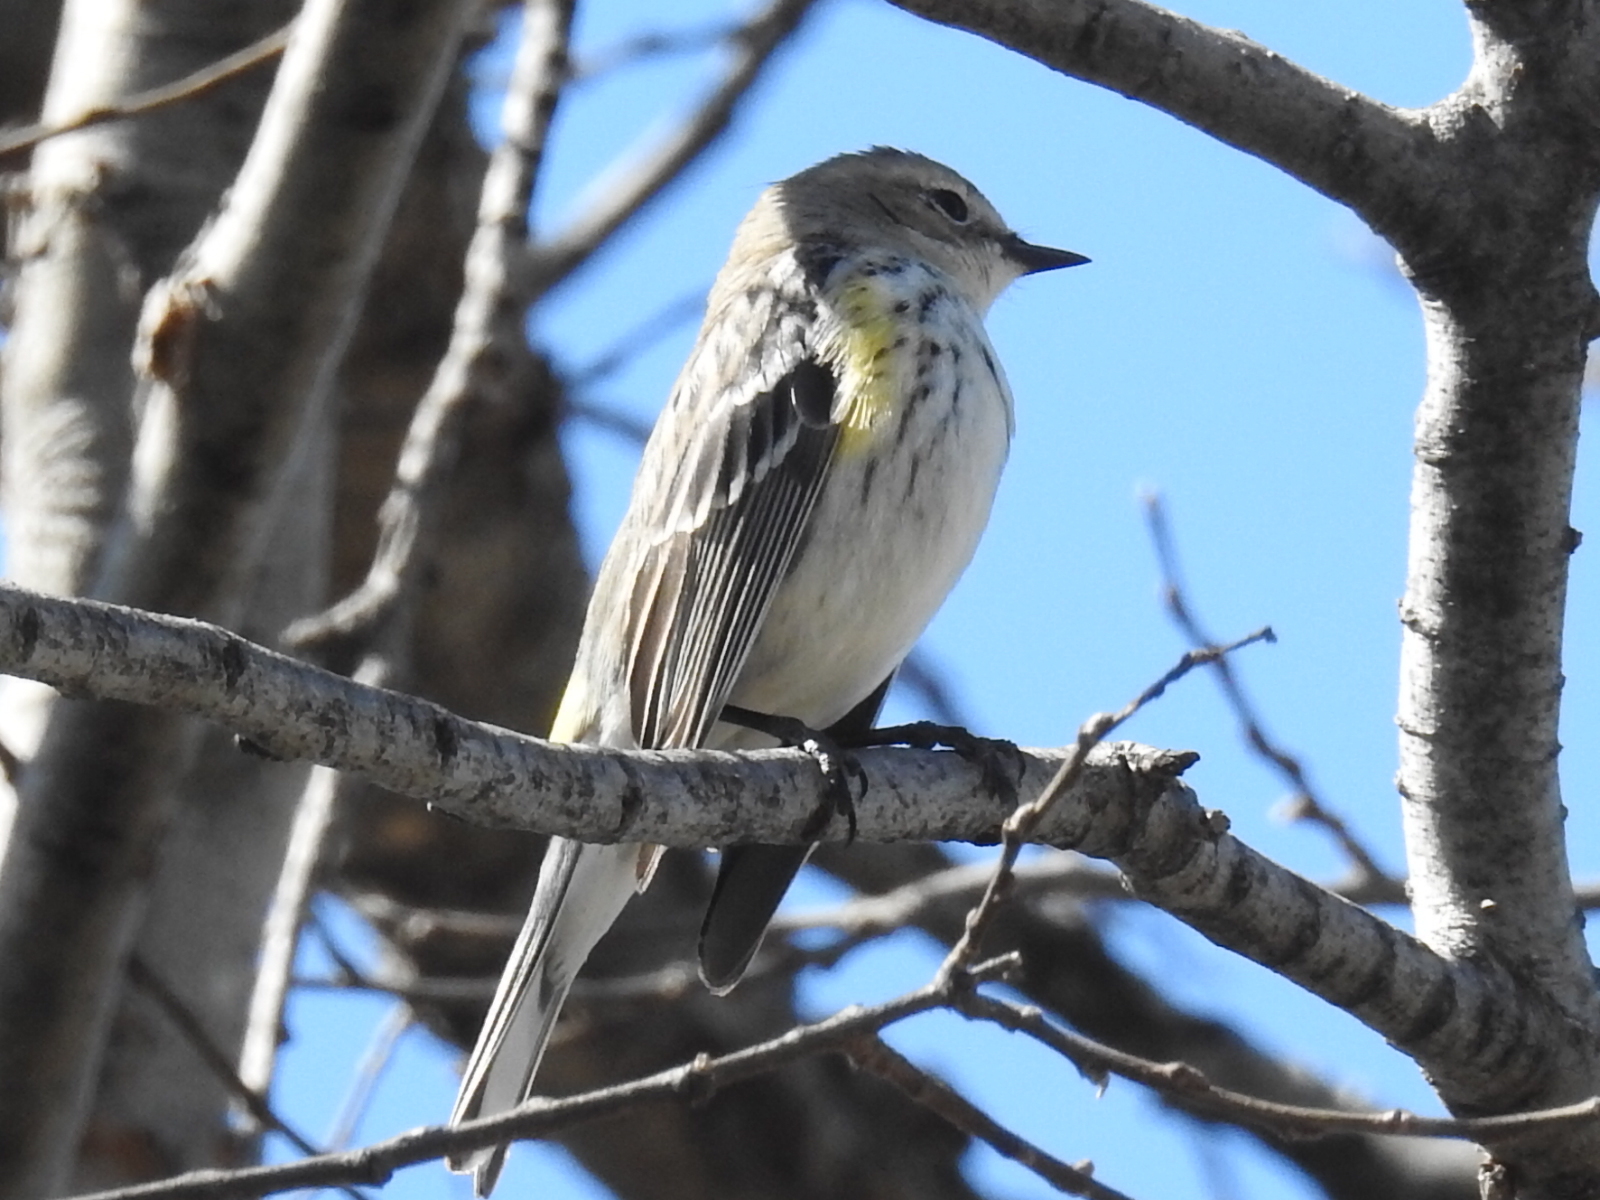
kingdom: Animalia
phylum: Chordata
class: Aves
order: Passeriformes
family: Parulidae
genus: Setophaga
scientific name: Setophaga coronata
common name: Myrtle warbler
